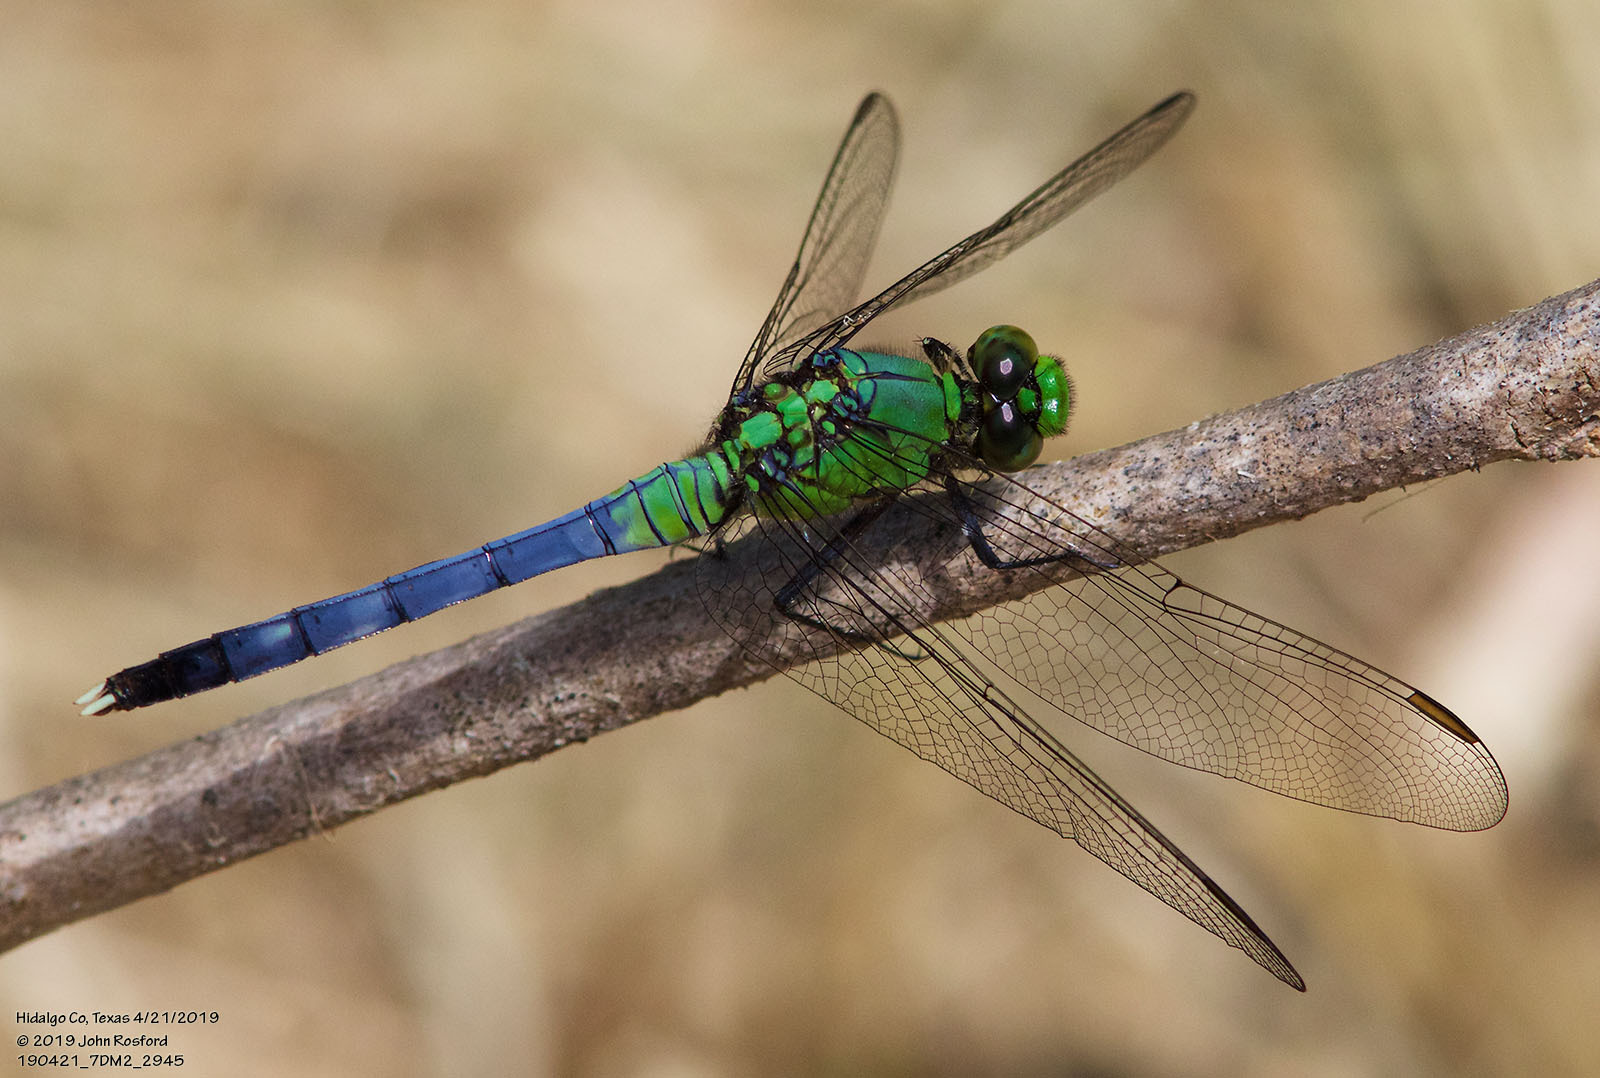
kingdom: Animalia
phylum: Arthropoda
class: Insecta
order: Odonata
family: Libellulidae
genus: Erythemis
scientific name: Erythemis simplicicollis
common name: Eastern pondhawk
